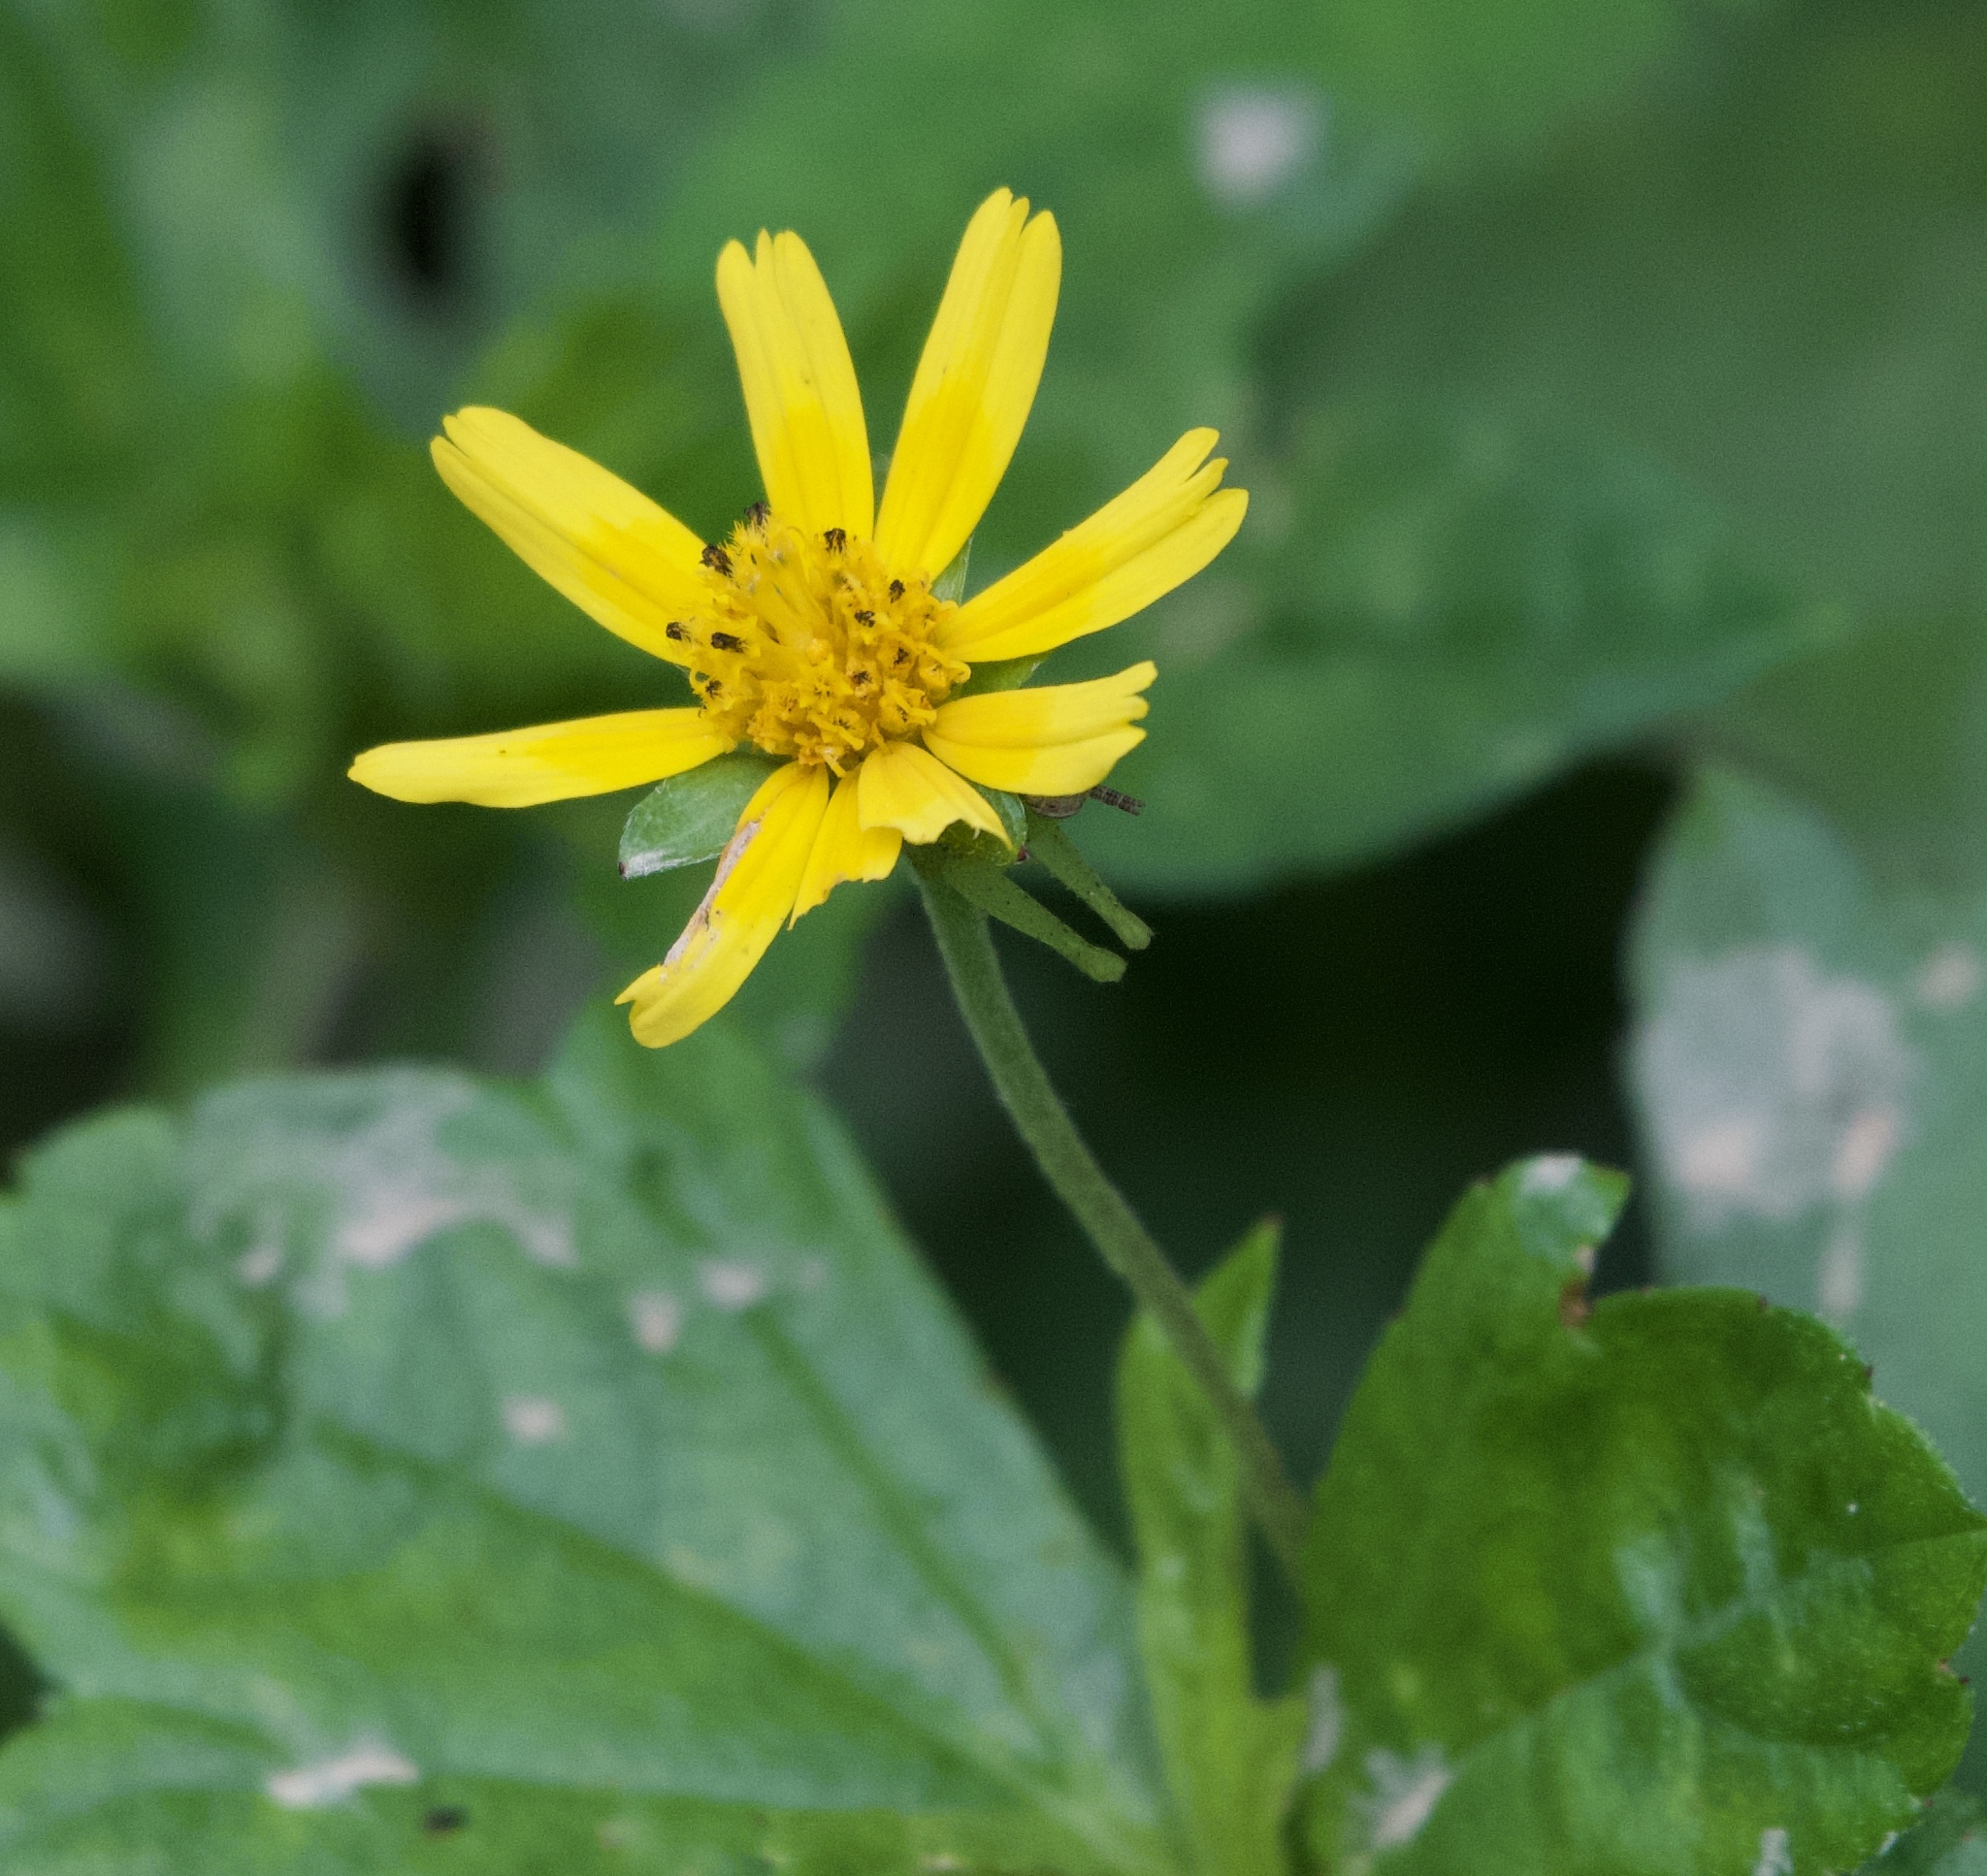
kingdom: Plantae
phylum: Tracheophyta
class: Magnoliopsida
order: Asterales
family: Asteraceae
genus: Sphagneticola
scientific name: Sphagneticola trilobata
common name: Bay biscayne creeping-oxeye
